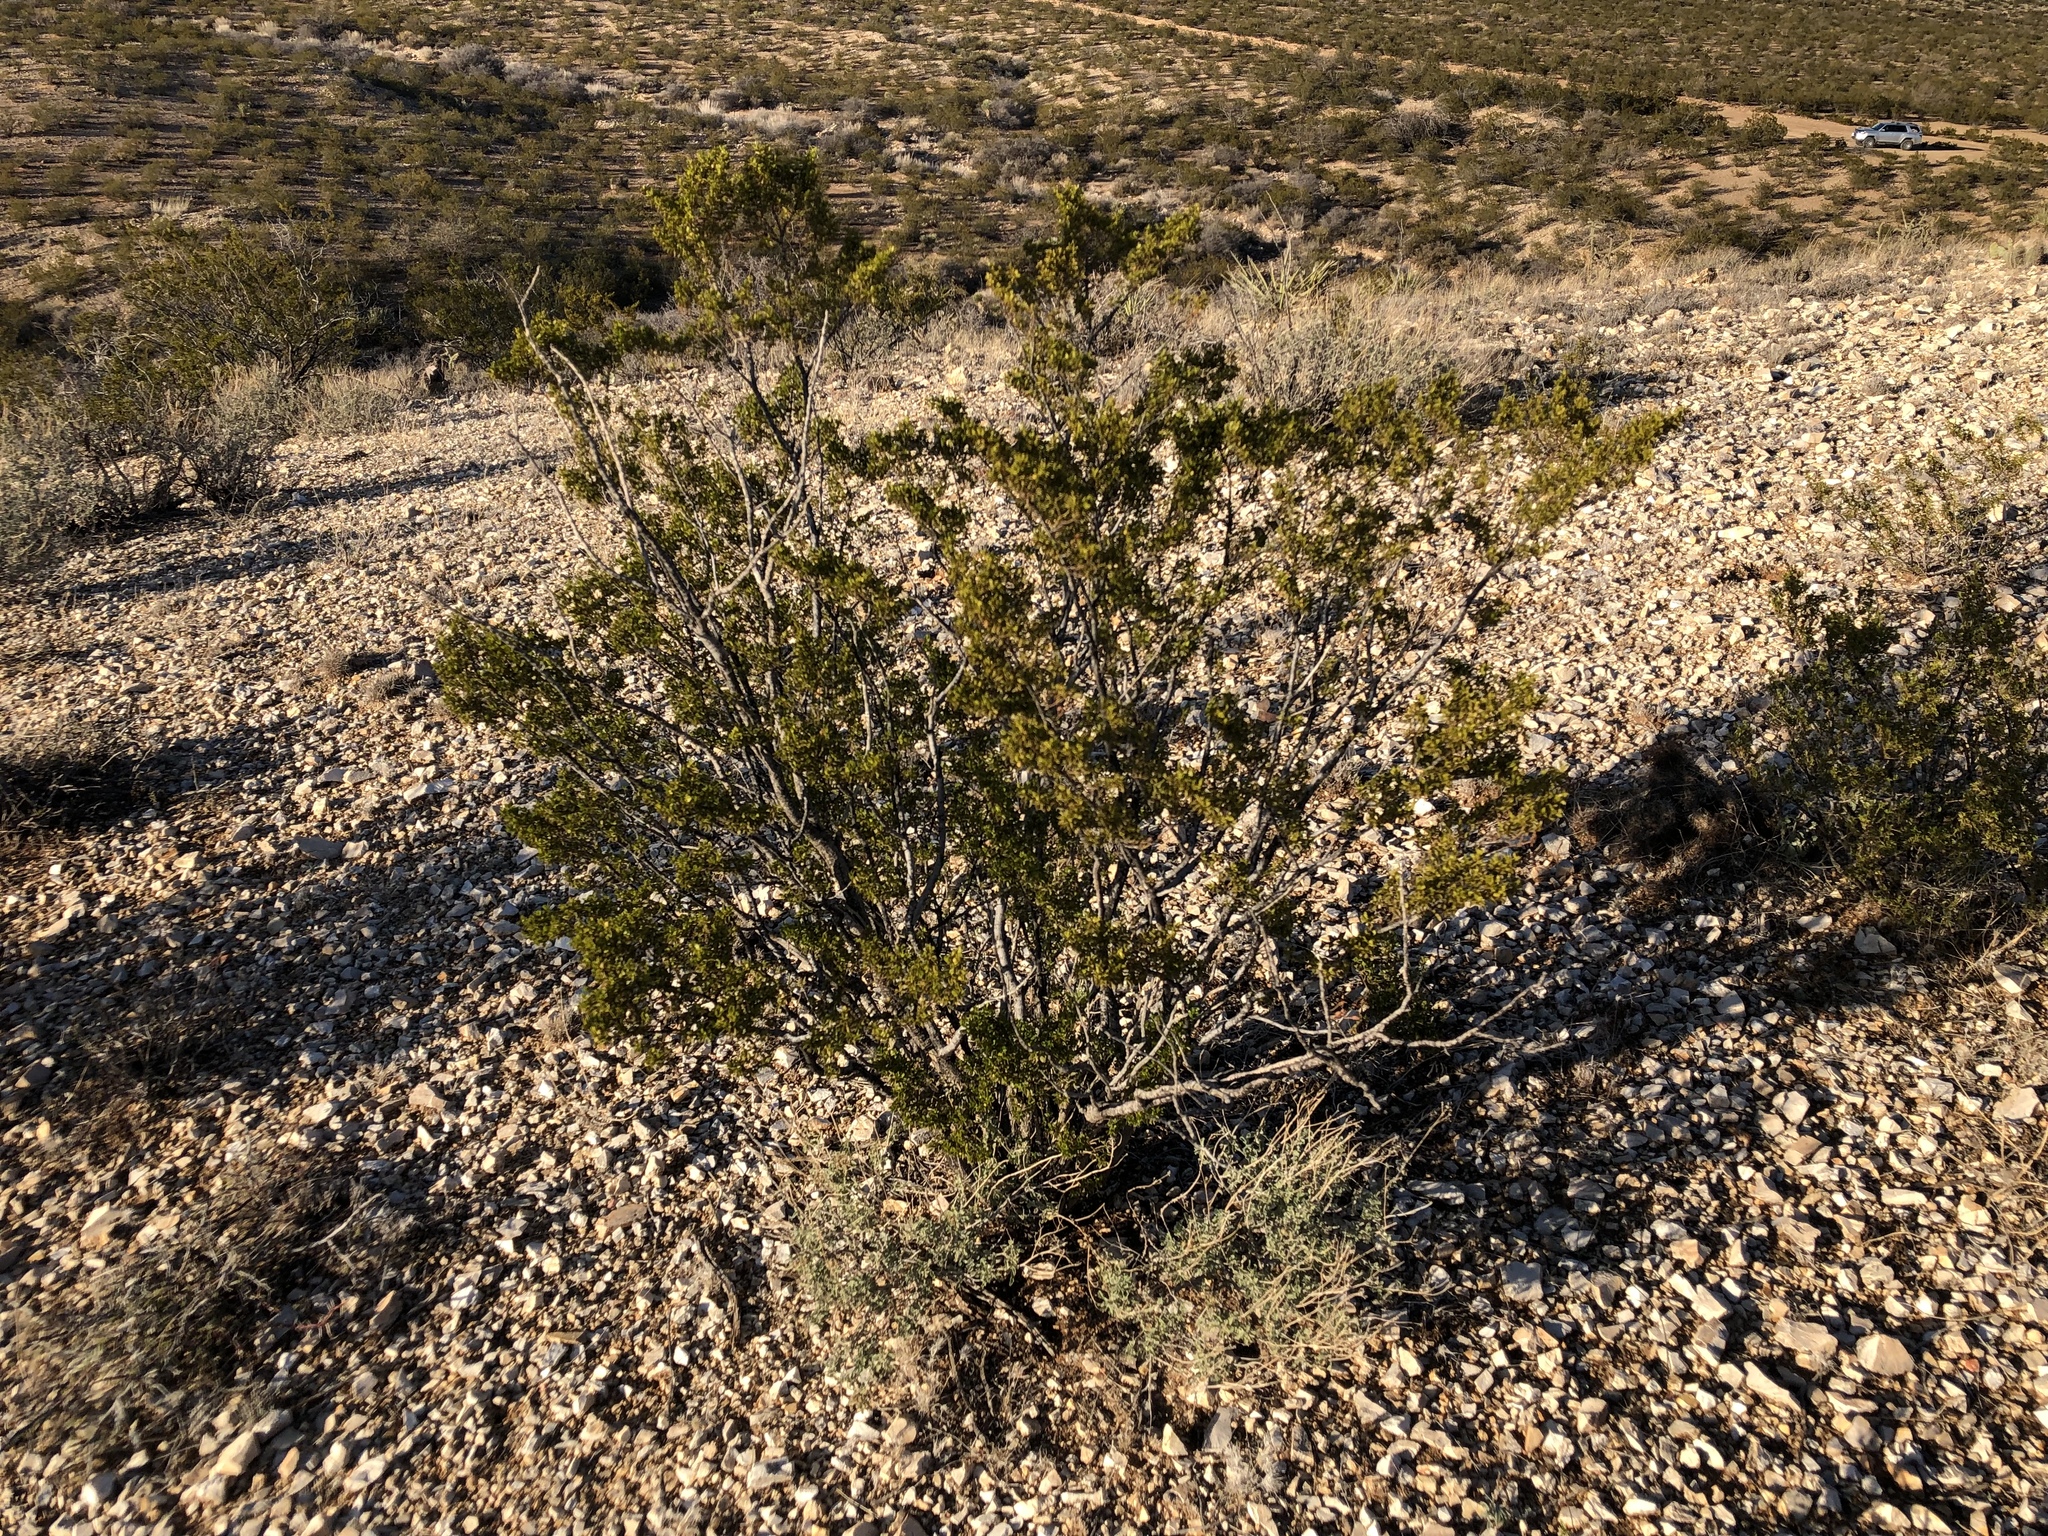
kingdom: Plantae
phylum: Tracheophyta
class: Magnoliopsida
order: Zygophyllales
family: Zygophyllaceae
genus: Larrea
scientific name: Larrea tridentata
